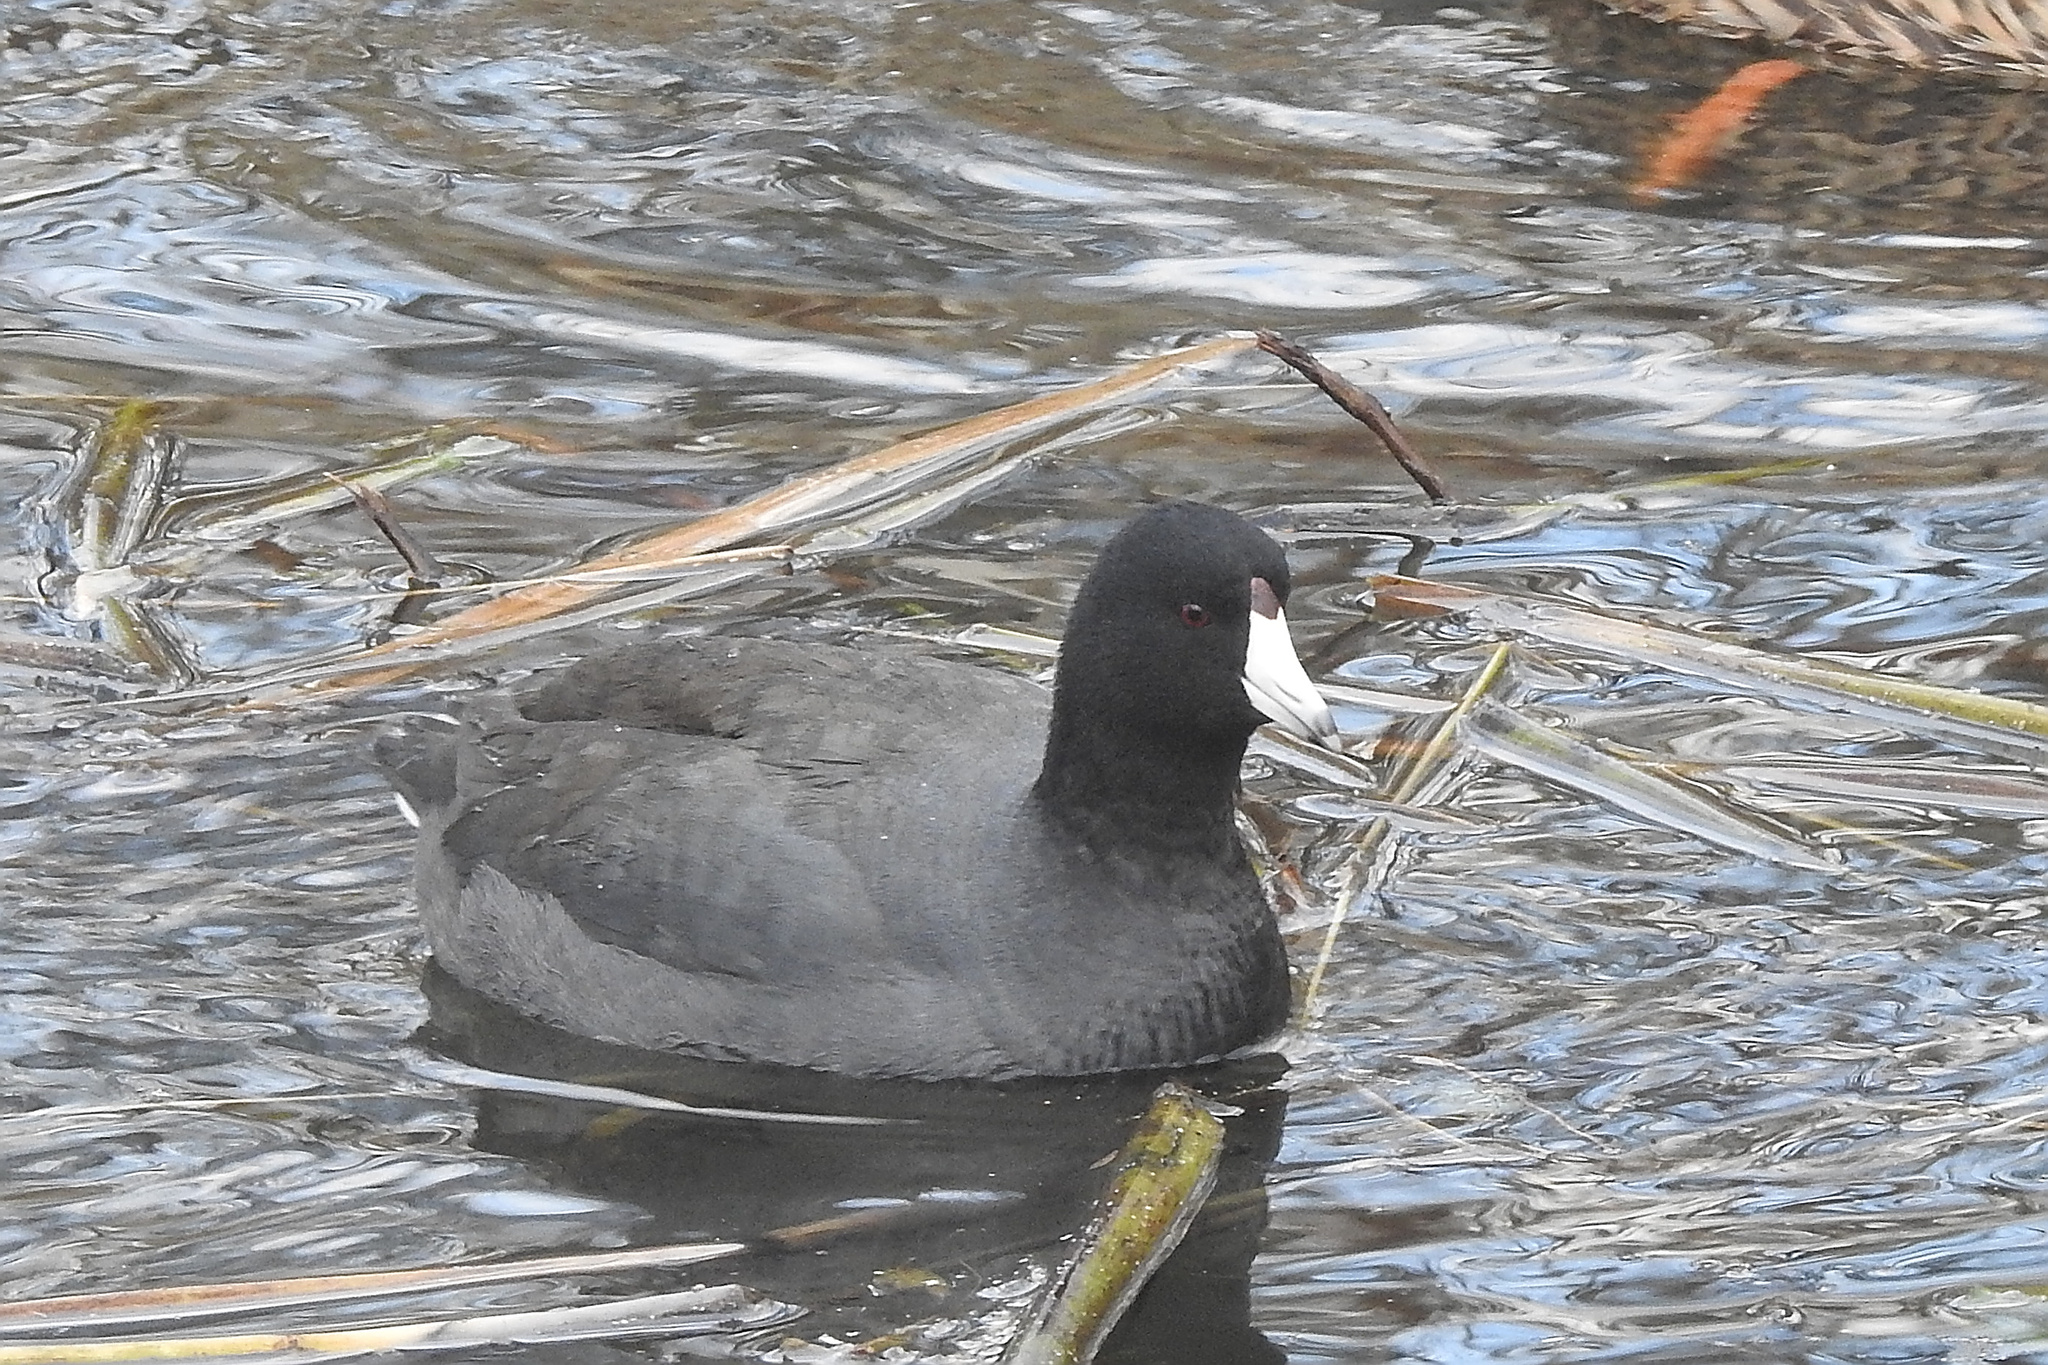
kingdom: Animalia
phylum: Chordata
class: Aves
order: Gruiformes
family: Rallidae
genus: Fulica
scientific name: Fulica americana
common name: American coot
